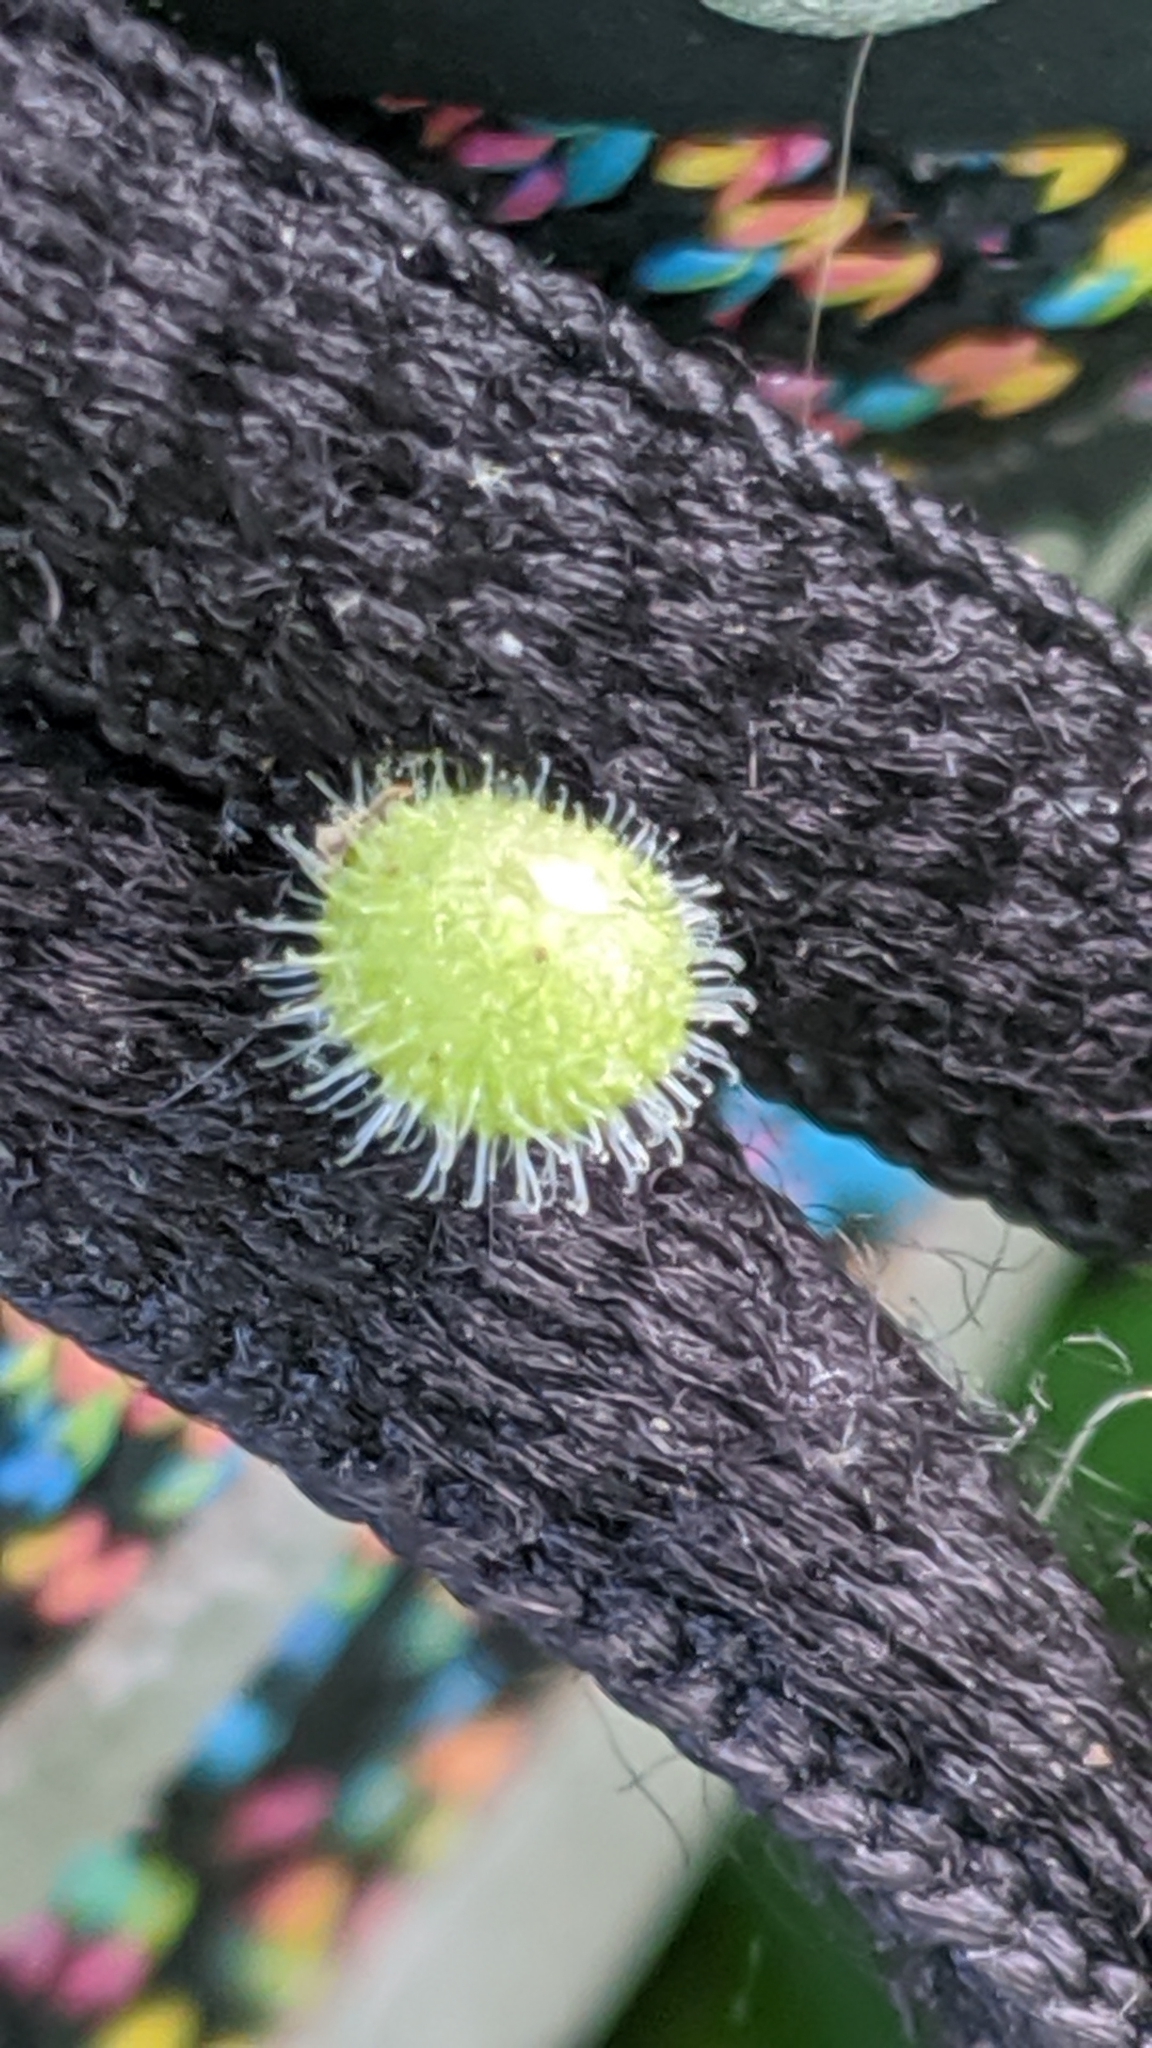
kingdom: Plantae
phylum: Tracheophyta
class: Magnoliopsida
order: Boraginales
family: Boraginaceae
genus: Hackelia
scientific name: Hackelia virginiana
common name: Beggar's-lice
